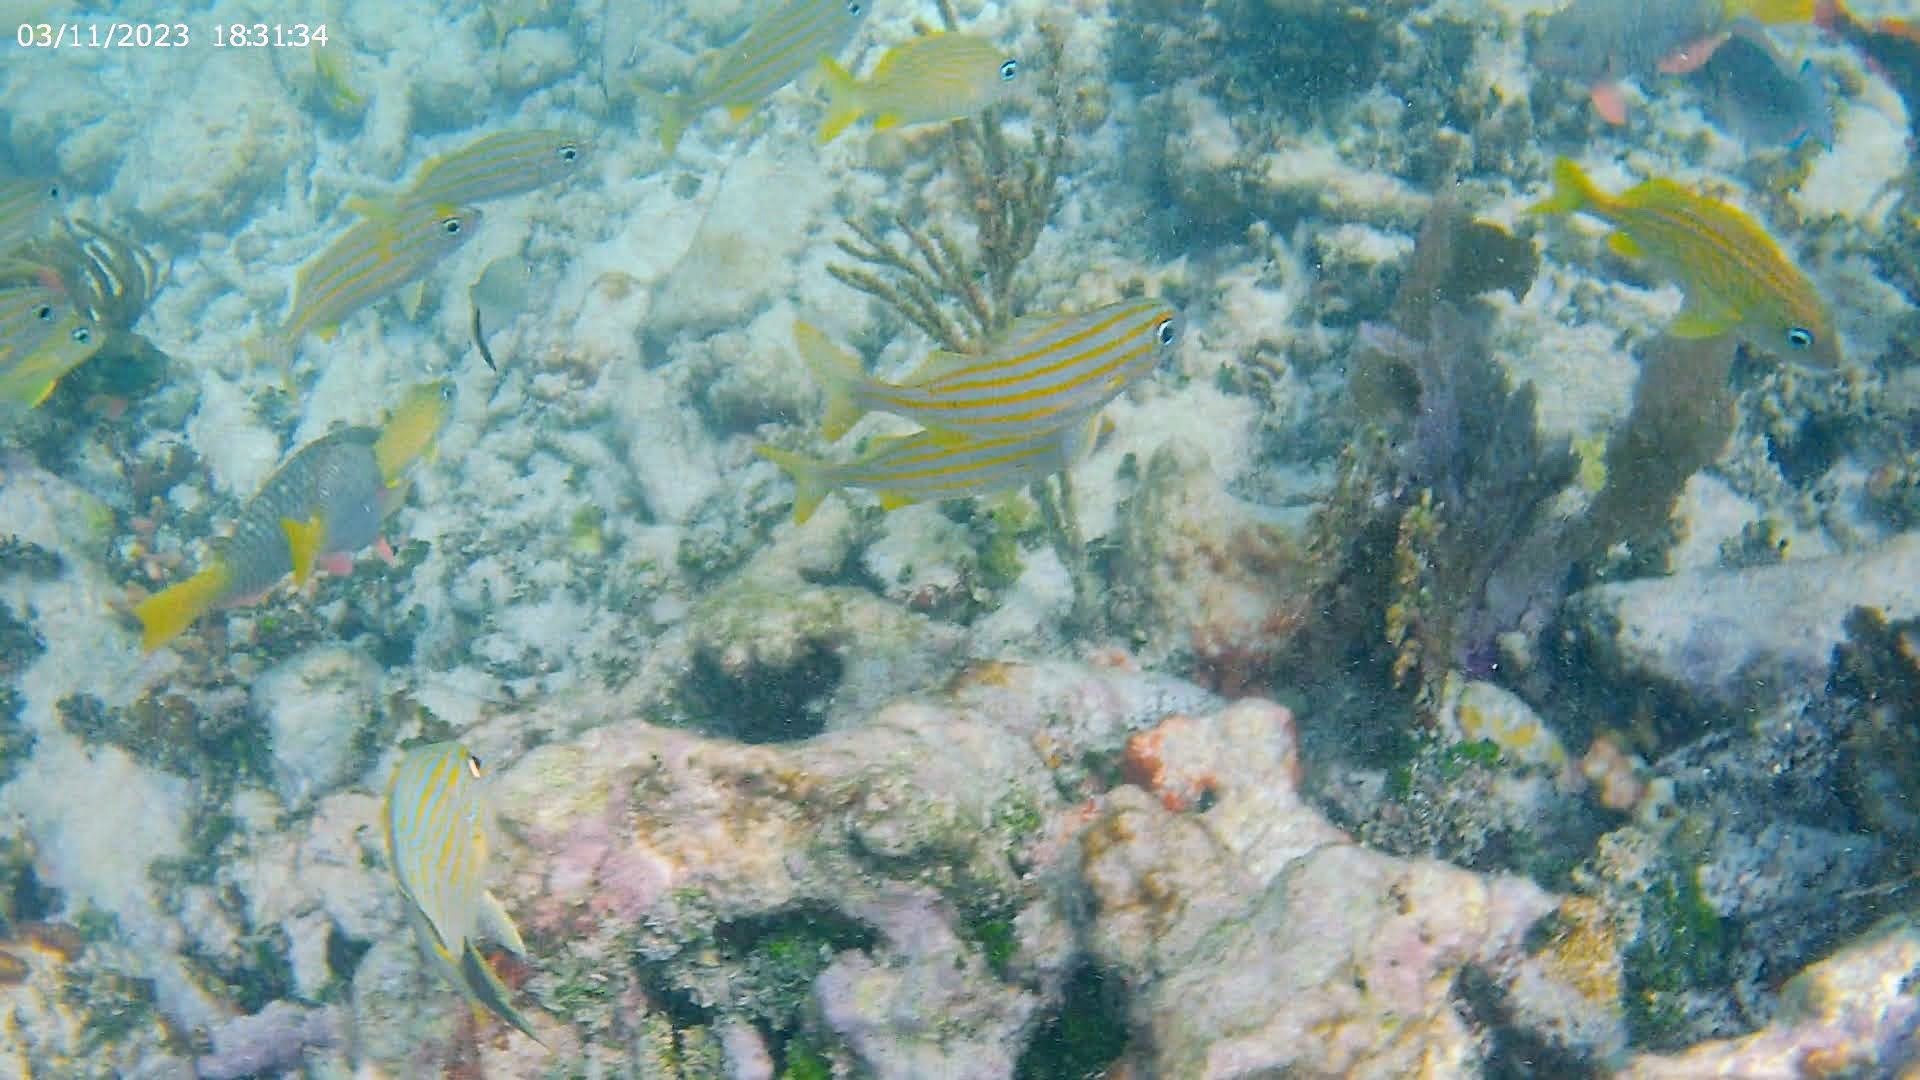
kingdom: Animalia
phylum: Chordata
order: Perciformes
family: Haemulidae
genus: Haemulon
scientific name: Haemulon flavolineatum
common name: French grunt
